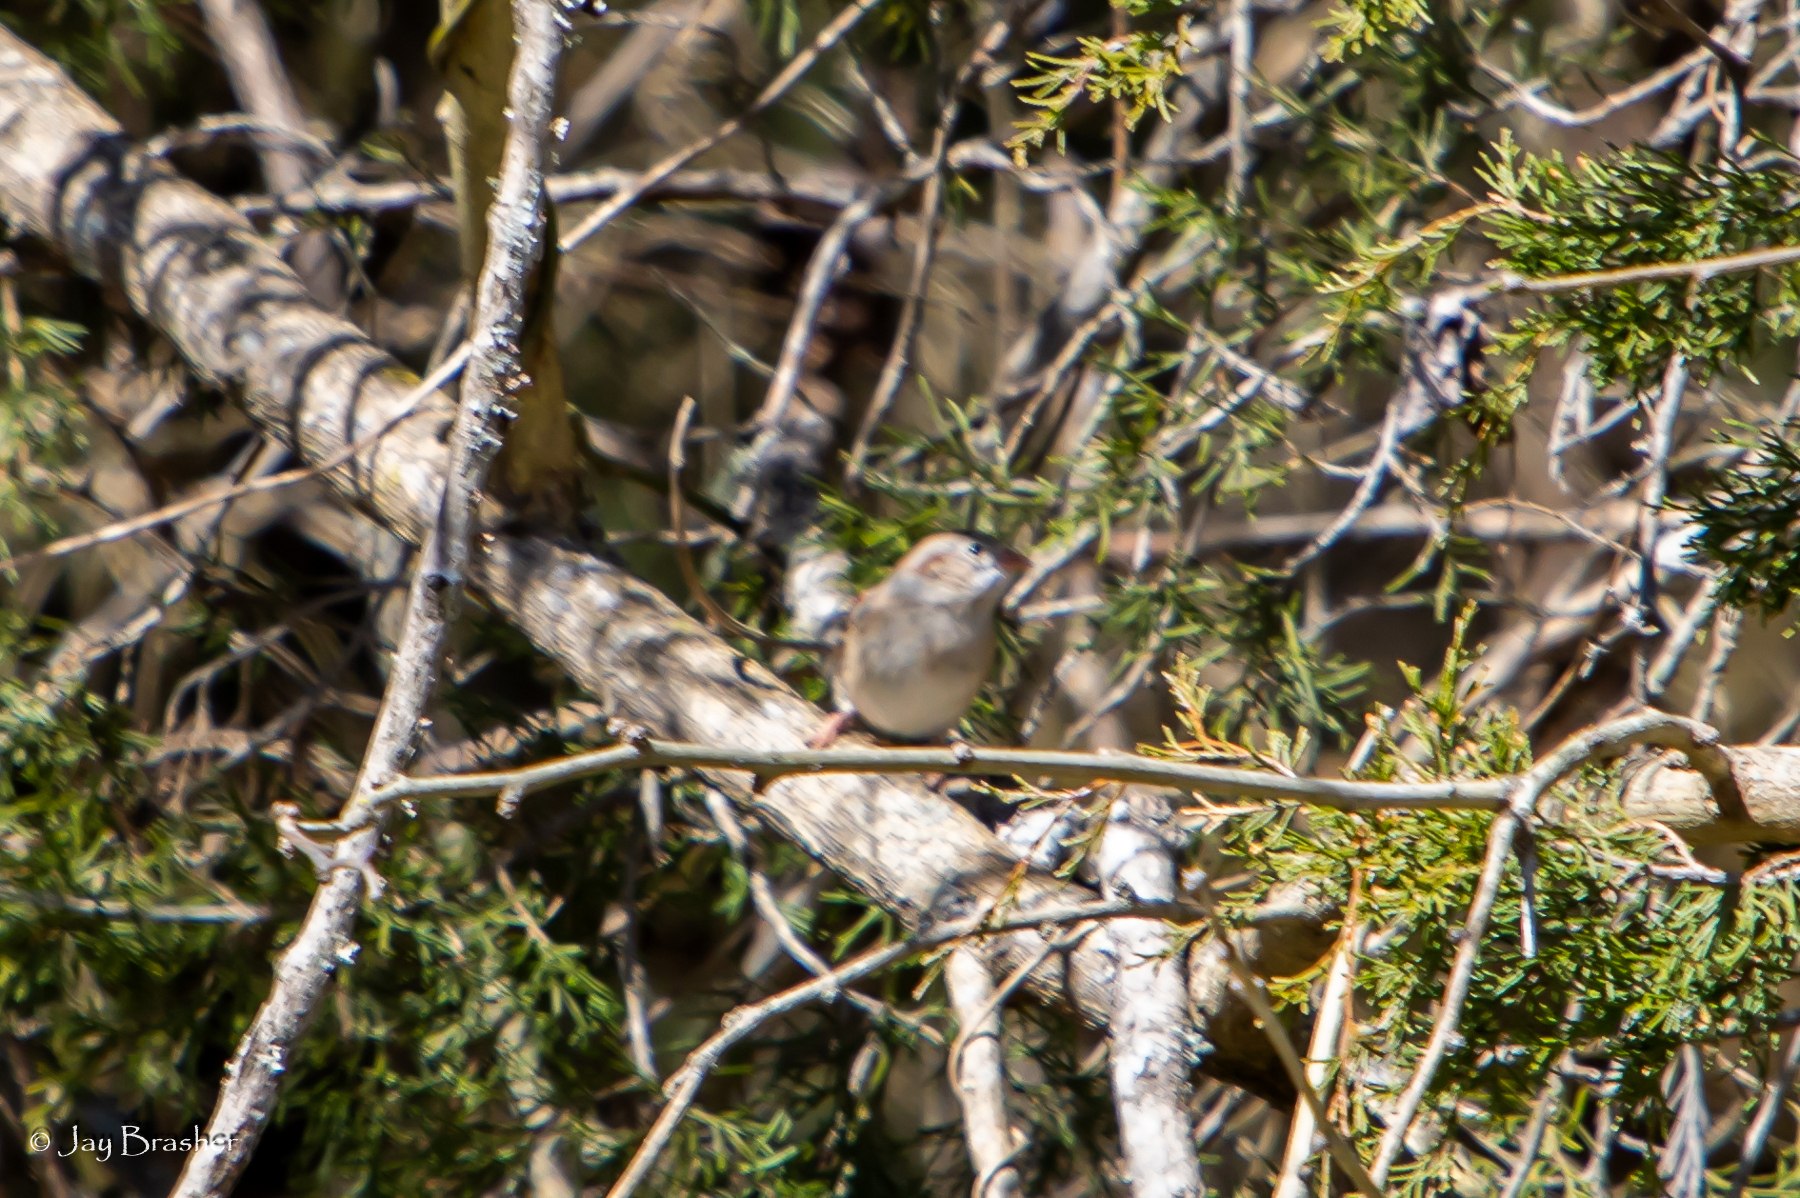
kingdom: Animalia
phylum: Chordata
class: Aves
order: Passeriformes
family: Passerellidae
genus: Spizella
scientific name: Spizella pusilla
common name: Field sparrow
